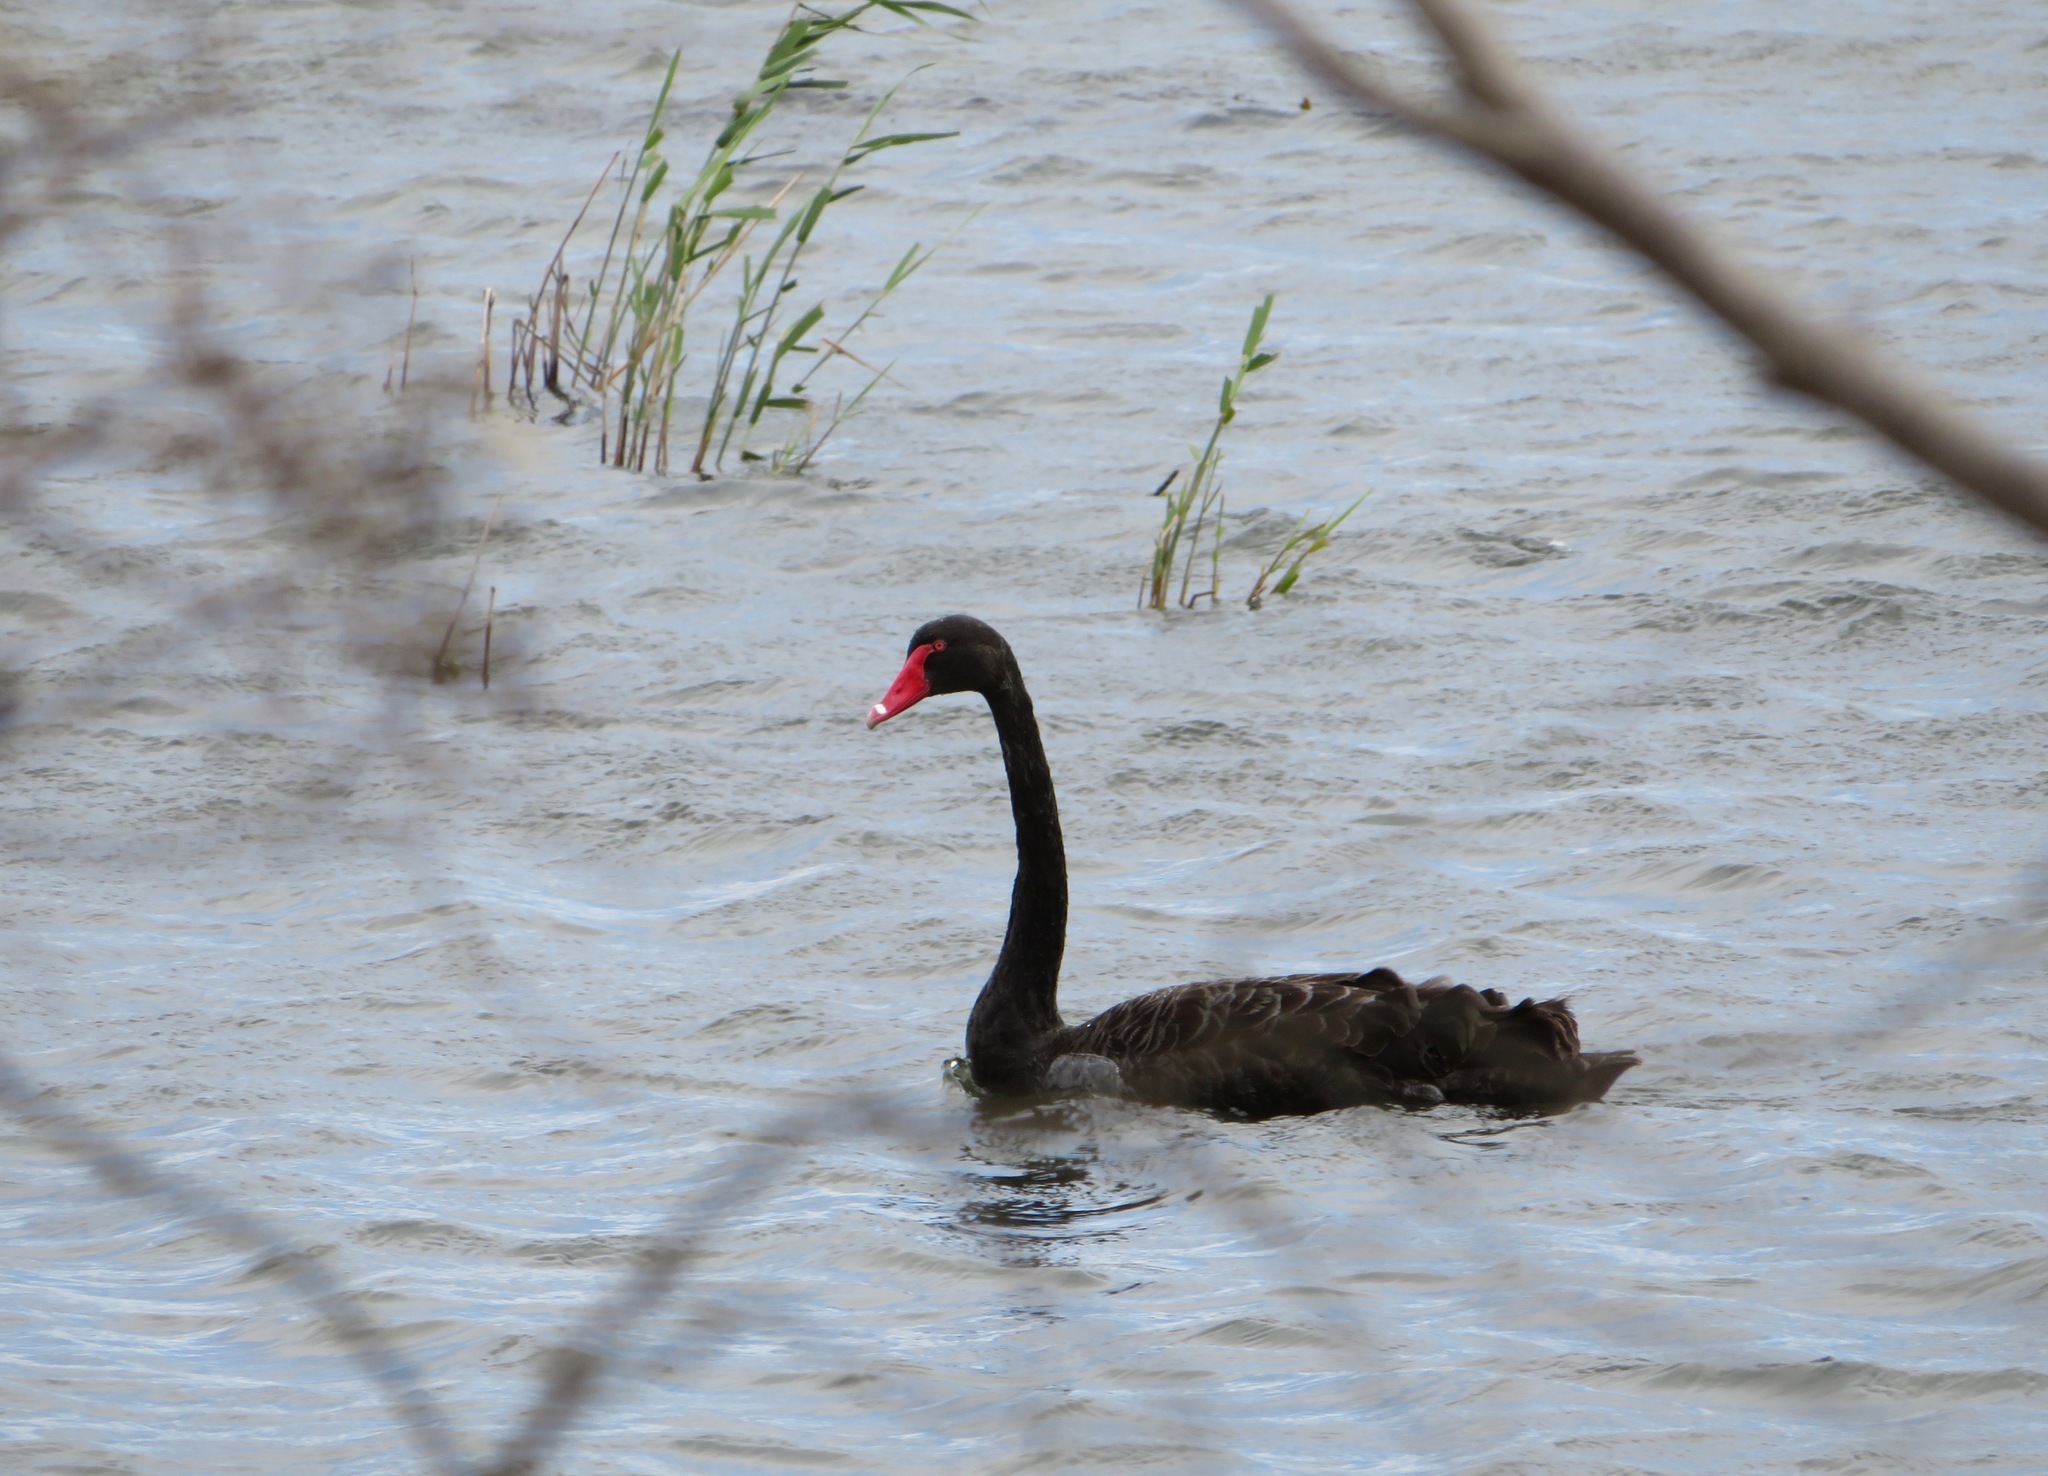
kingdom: Animalia
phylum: Chordata
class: Aves
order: Anseriformes
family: Anatidae
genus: Cygnus
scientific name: Cygnus atratus
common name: Black swan
